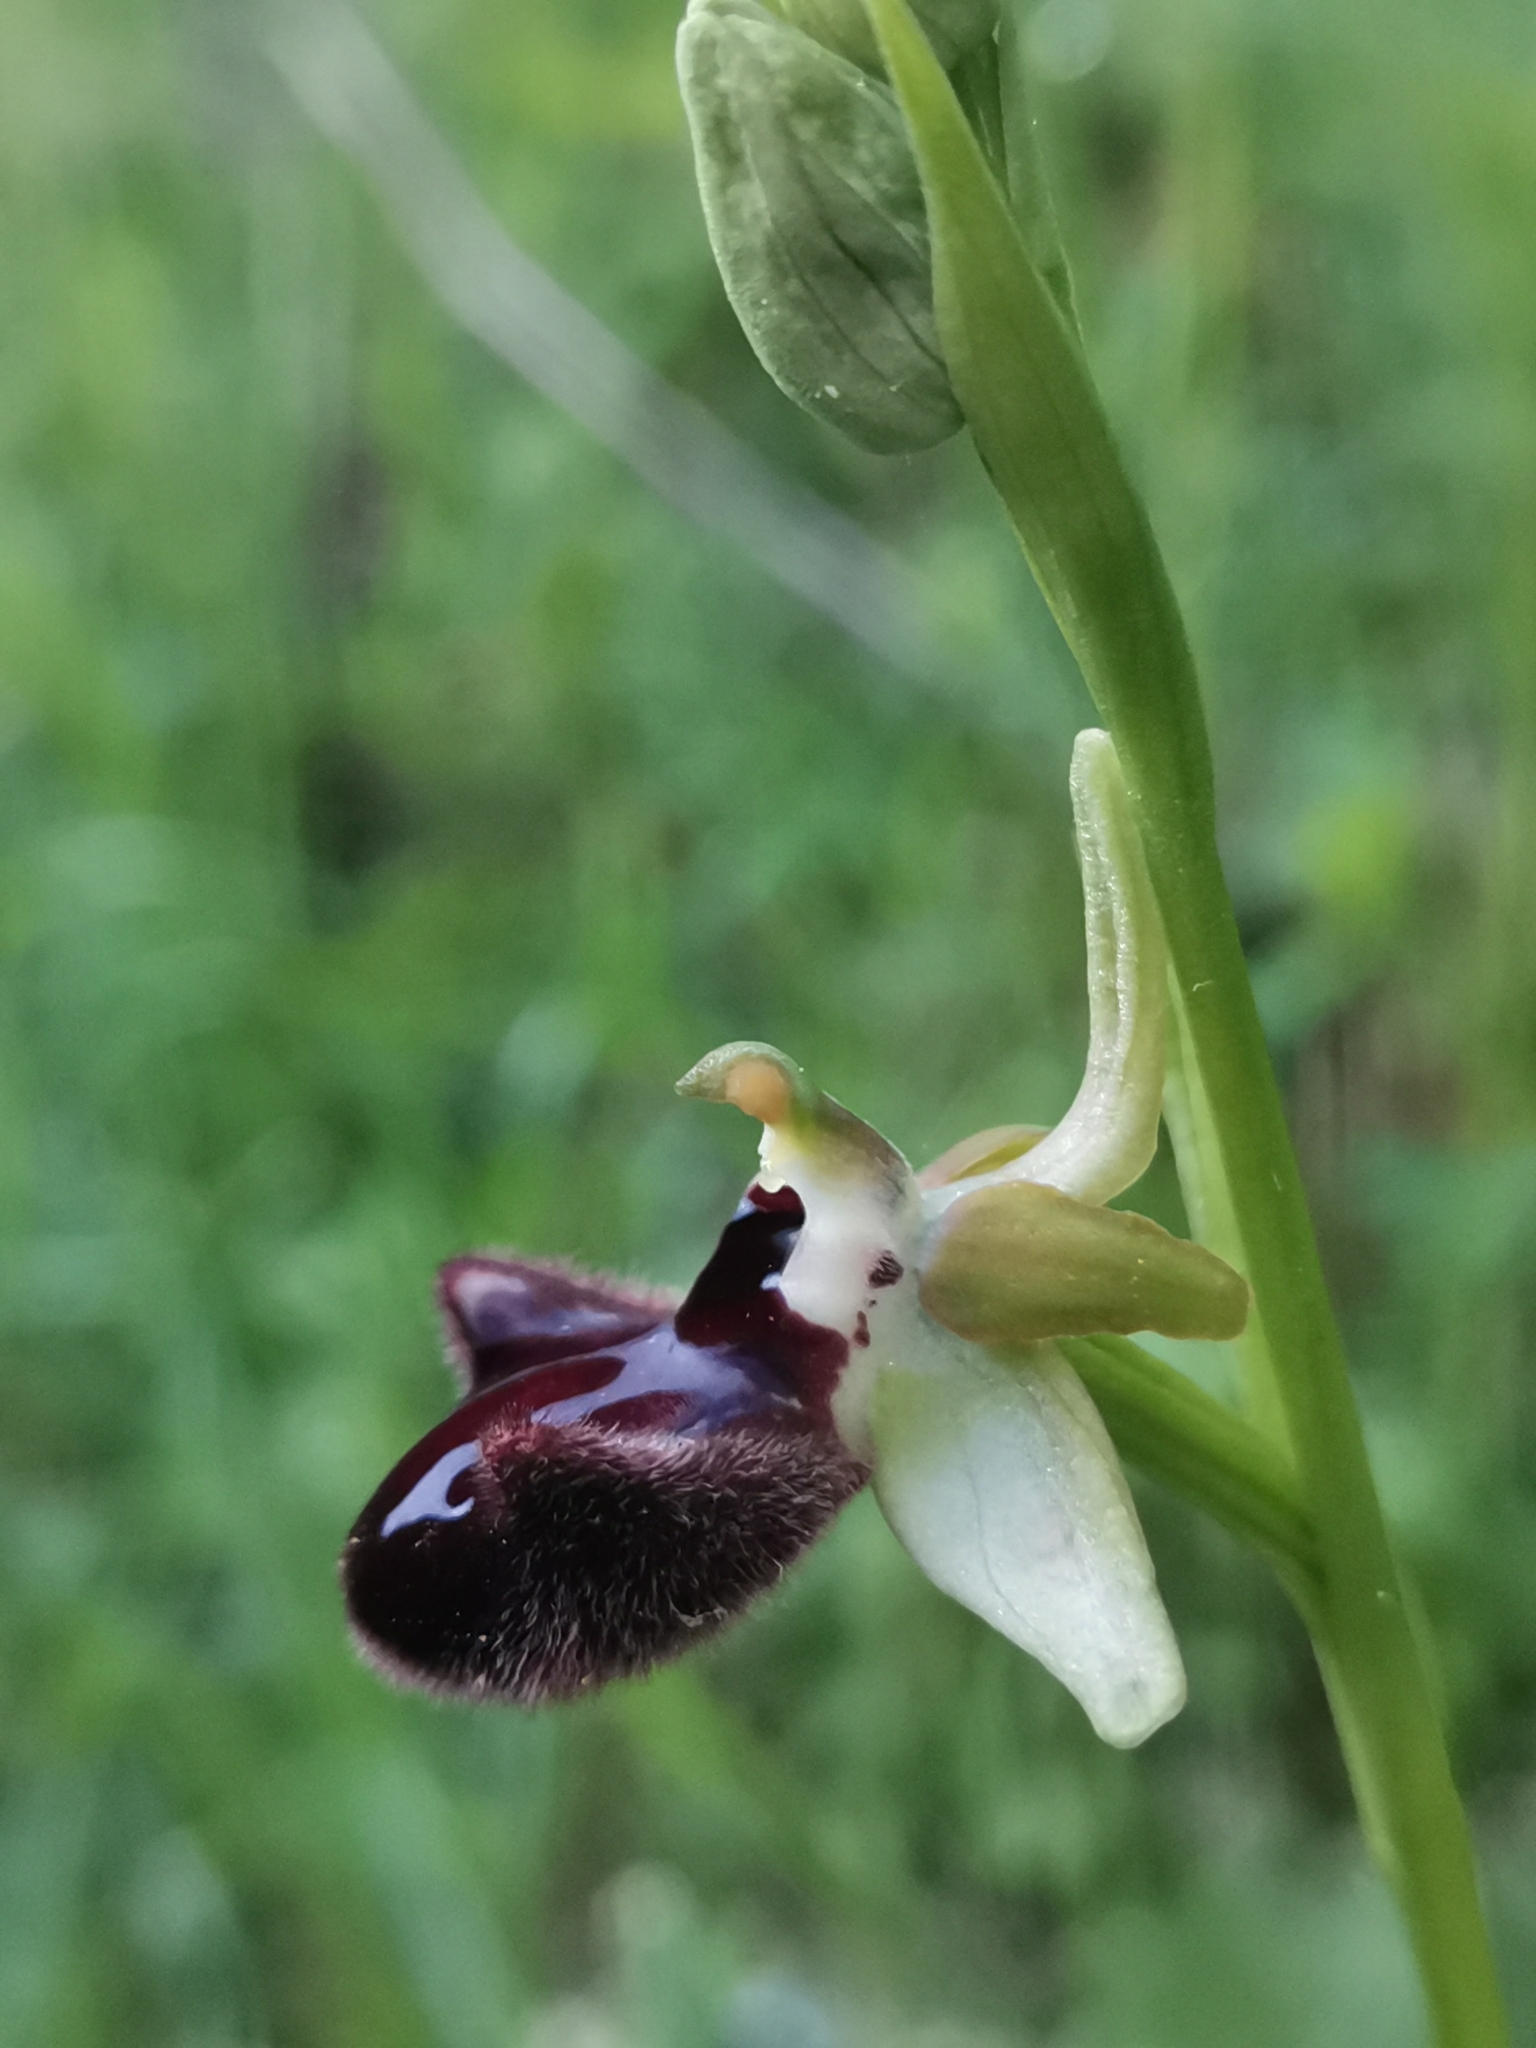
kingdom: Plantae
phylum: Tracheophyta
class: Liliopsida
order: Asparagales
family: Orchidaceae
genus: Ophrys
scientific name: Ophrys sphegodes
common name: Early spider-orchid
